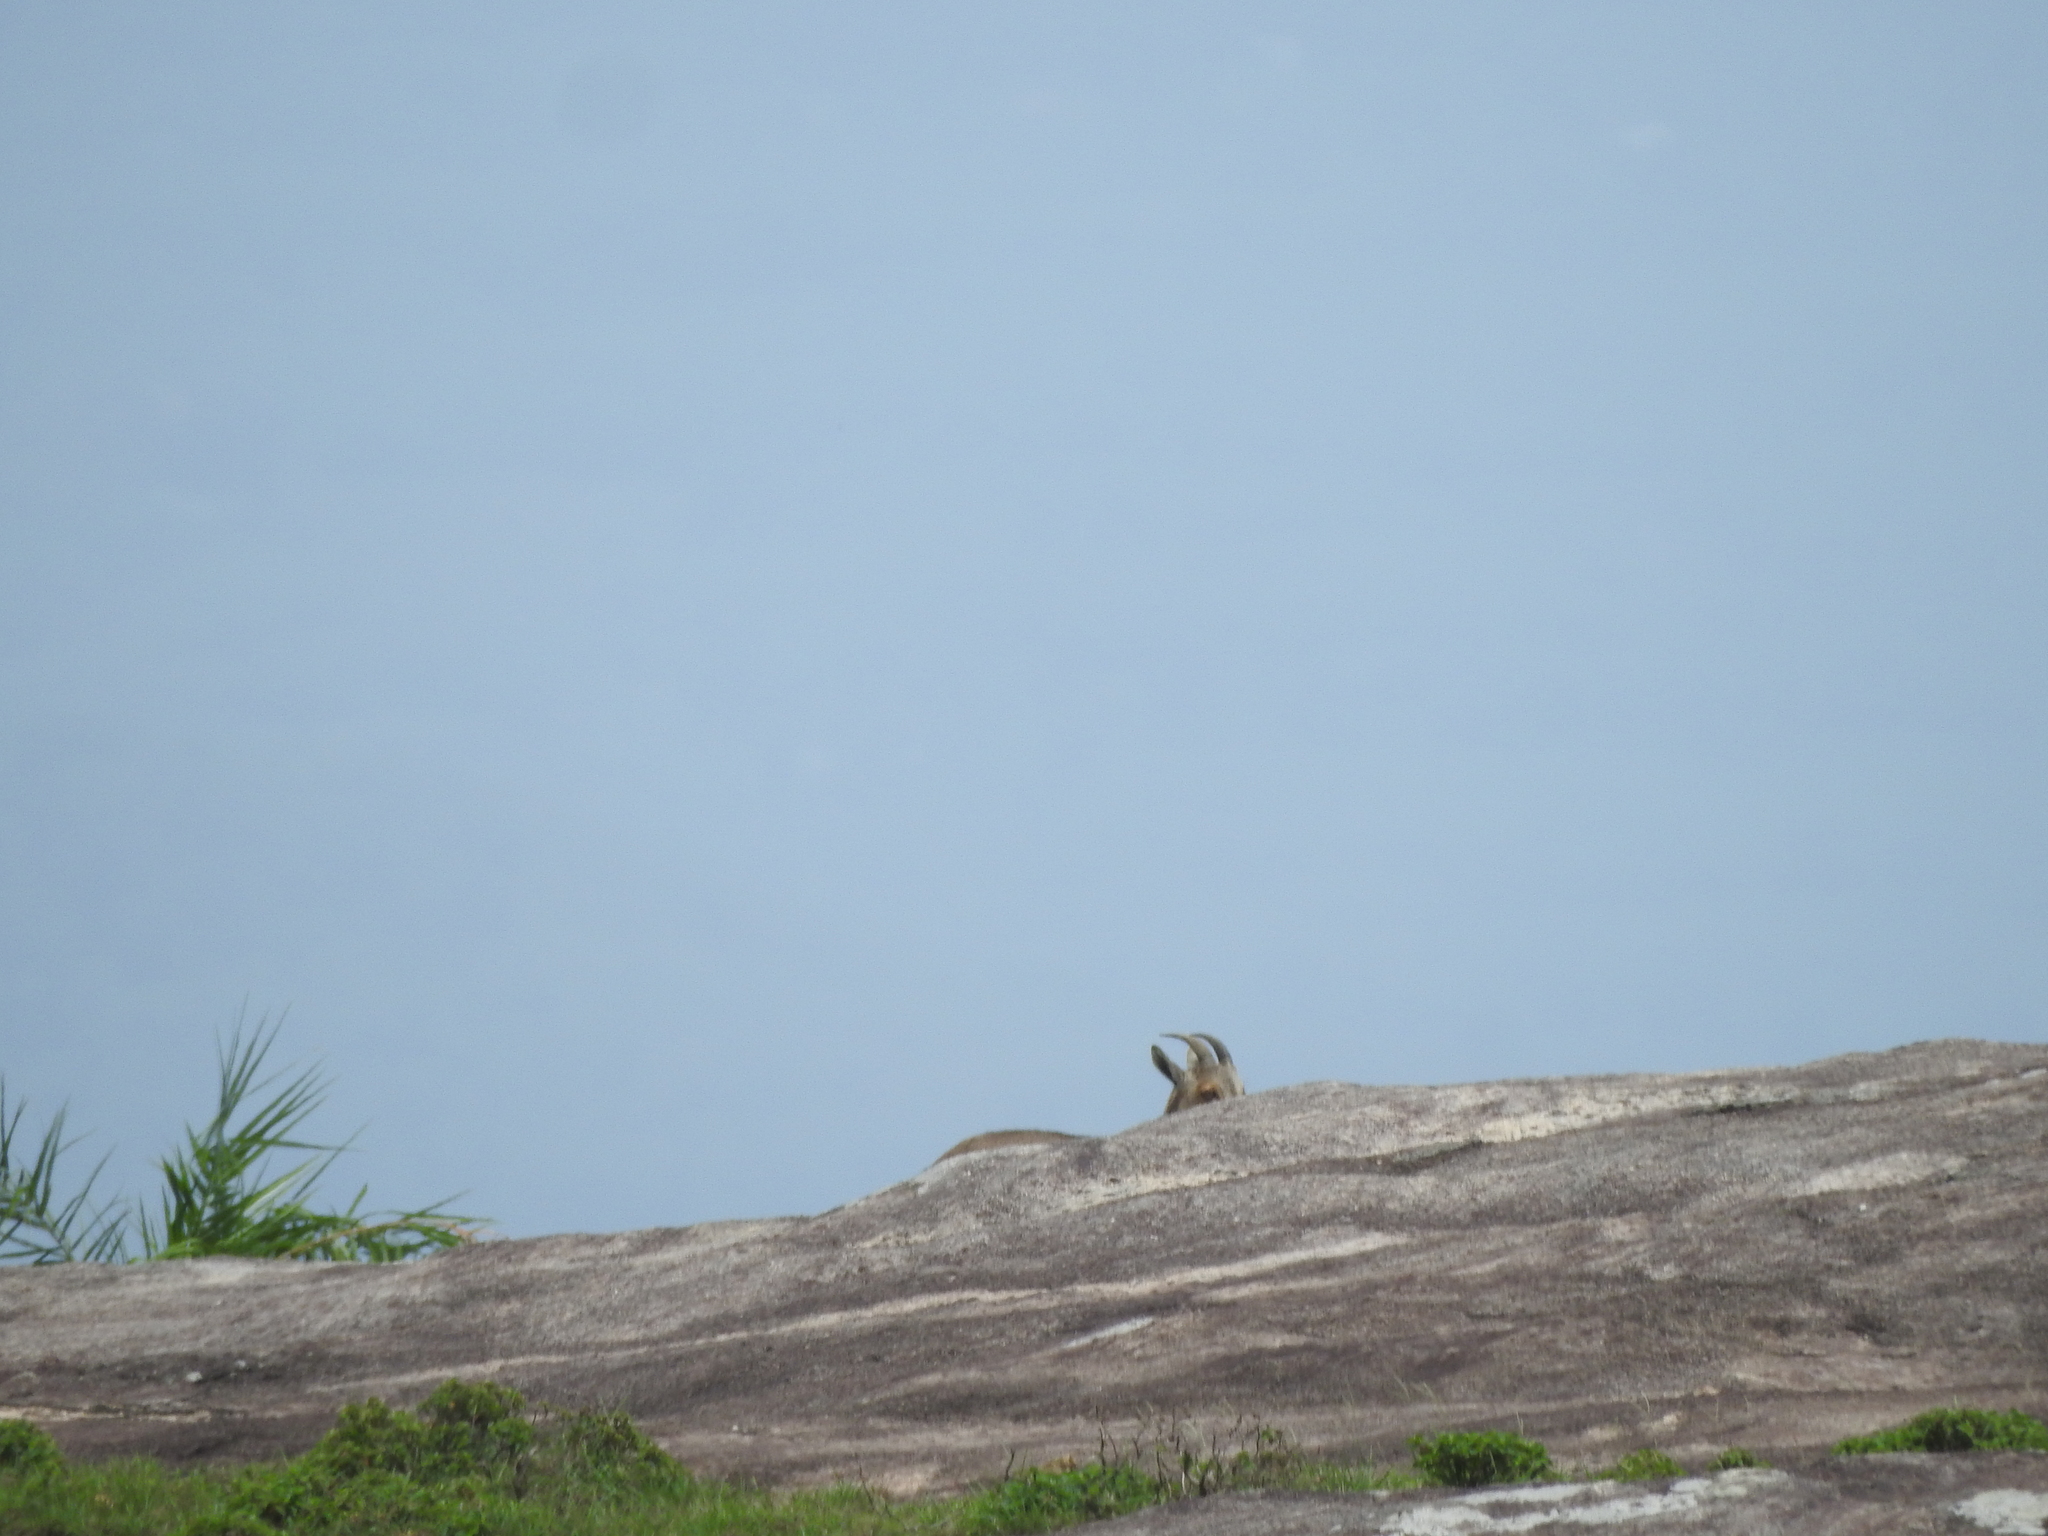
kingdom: Animalia
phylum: Chordata
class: Mammalia
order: Artiodactyla
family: Bovidae
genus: Hemitragus
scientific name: Hemitragus hylocrius
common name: Nilgiri tahr
